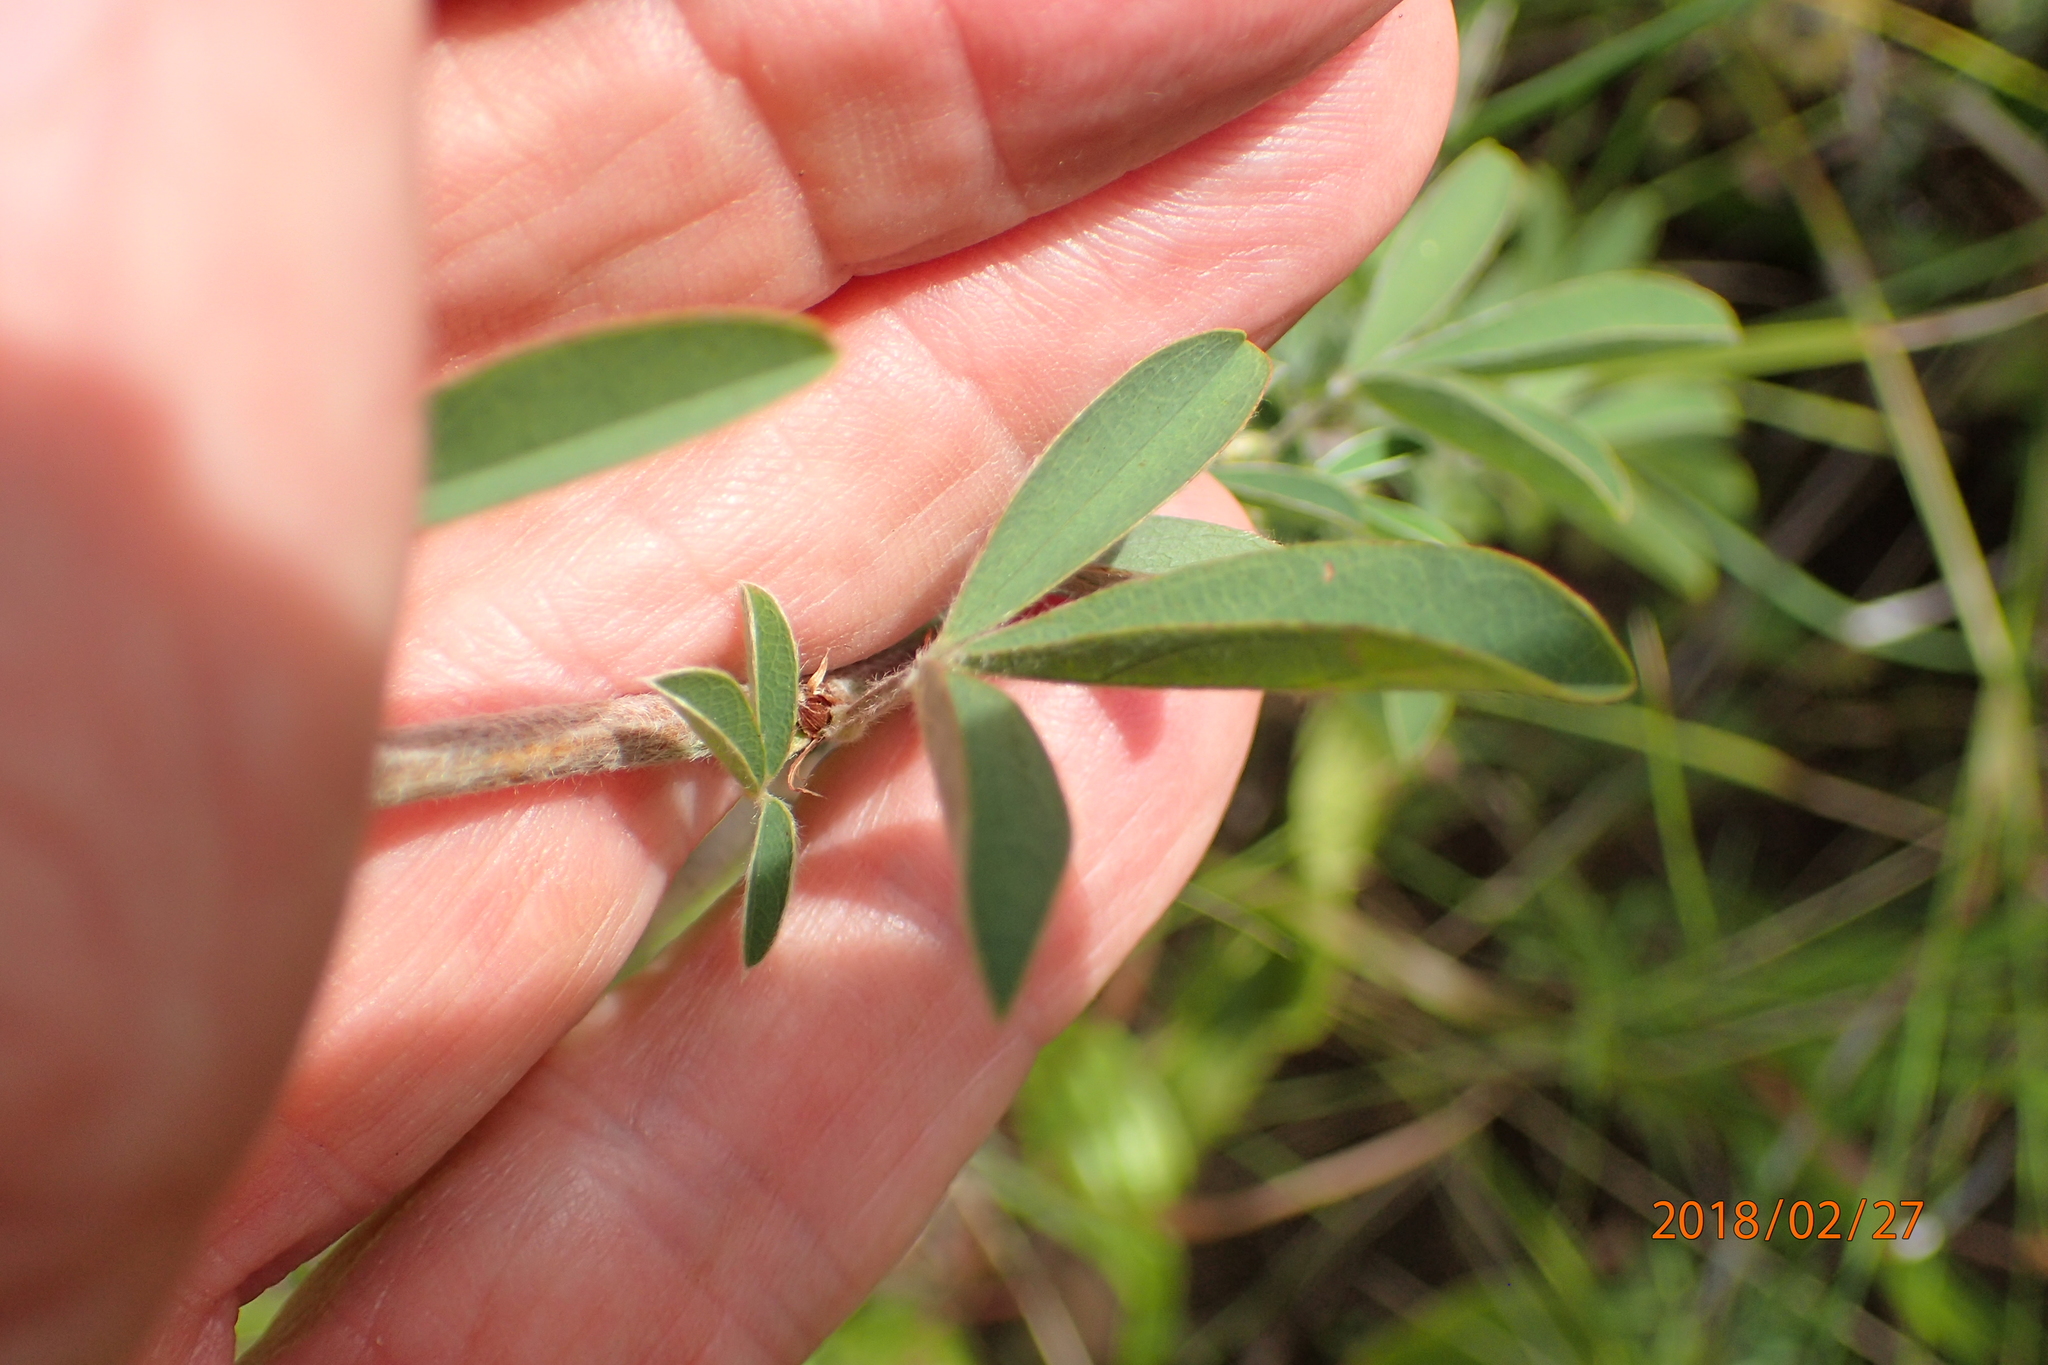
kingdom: Plantae
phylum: Tracheophyta
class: Magnoliopsida
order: Fabales
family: Fabaceae
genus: Grona
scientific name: Grona caffra
